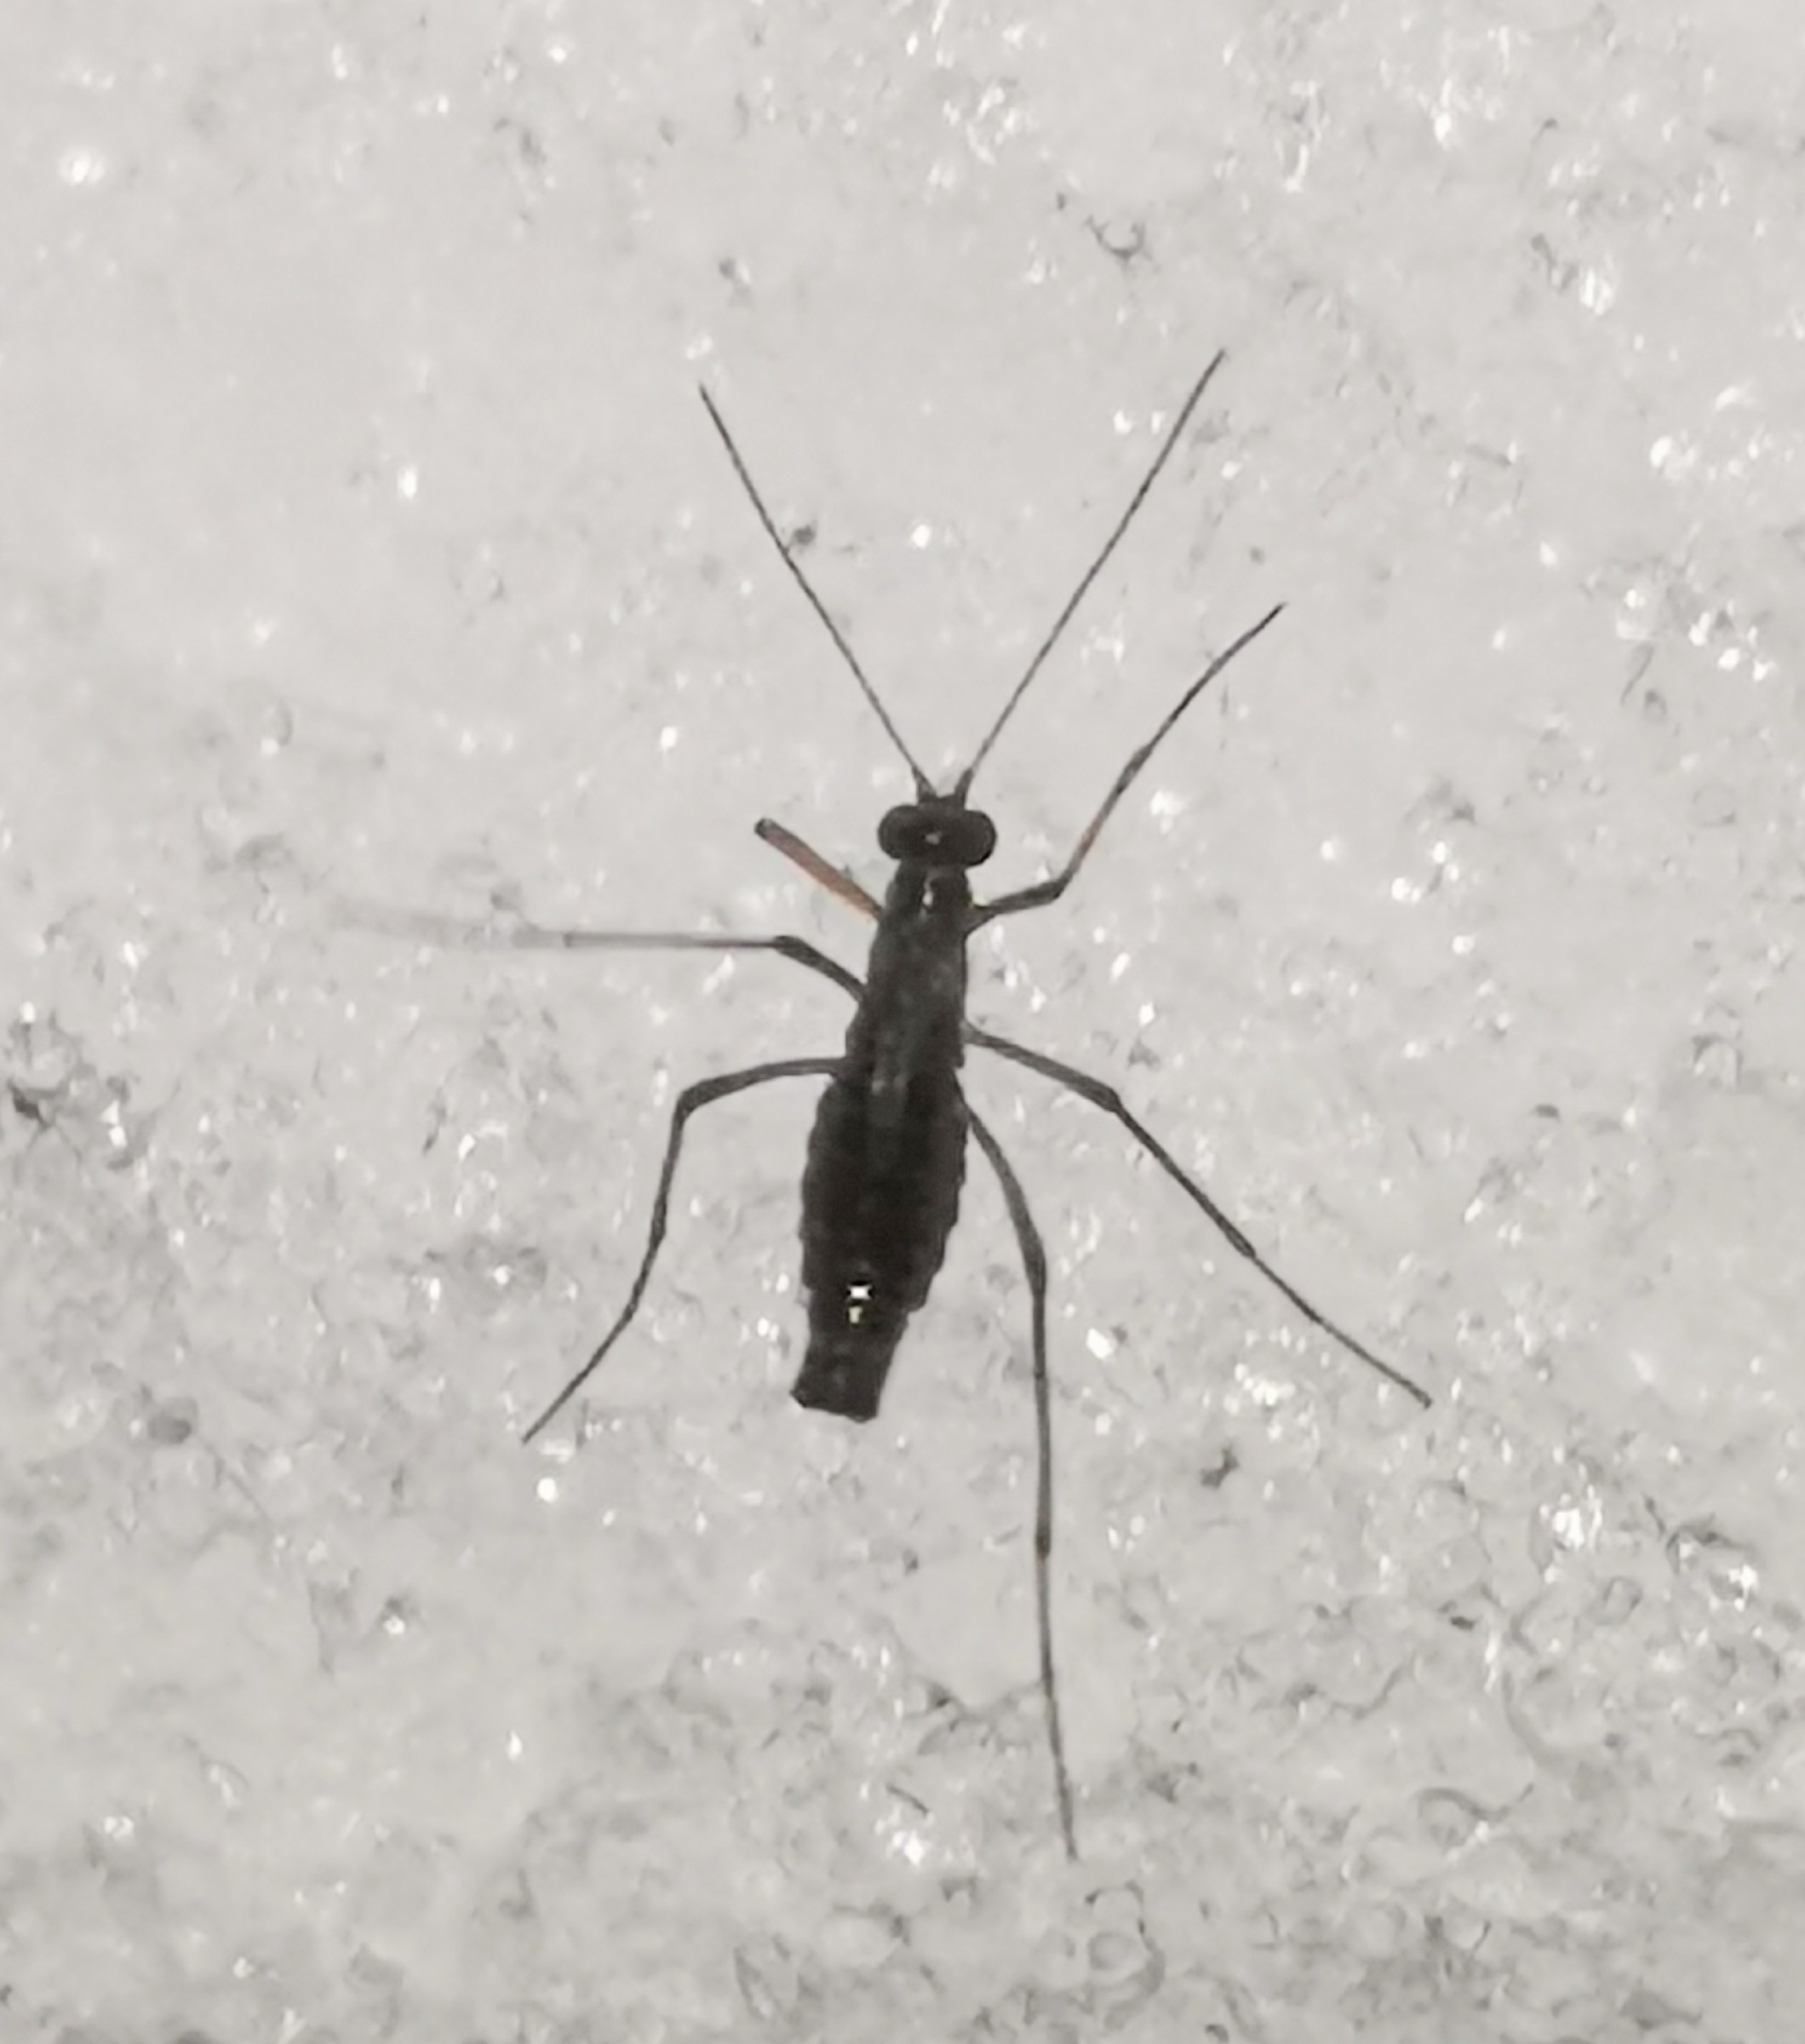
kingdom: Animalia
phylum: Arthropoda
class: Insecta
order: Mecoptera
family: Boreidae
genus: Boreus
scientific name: Boreus westwoodi
